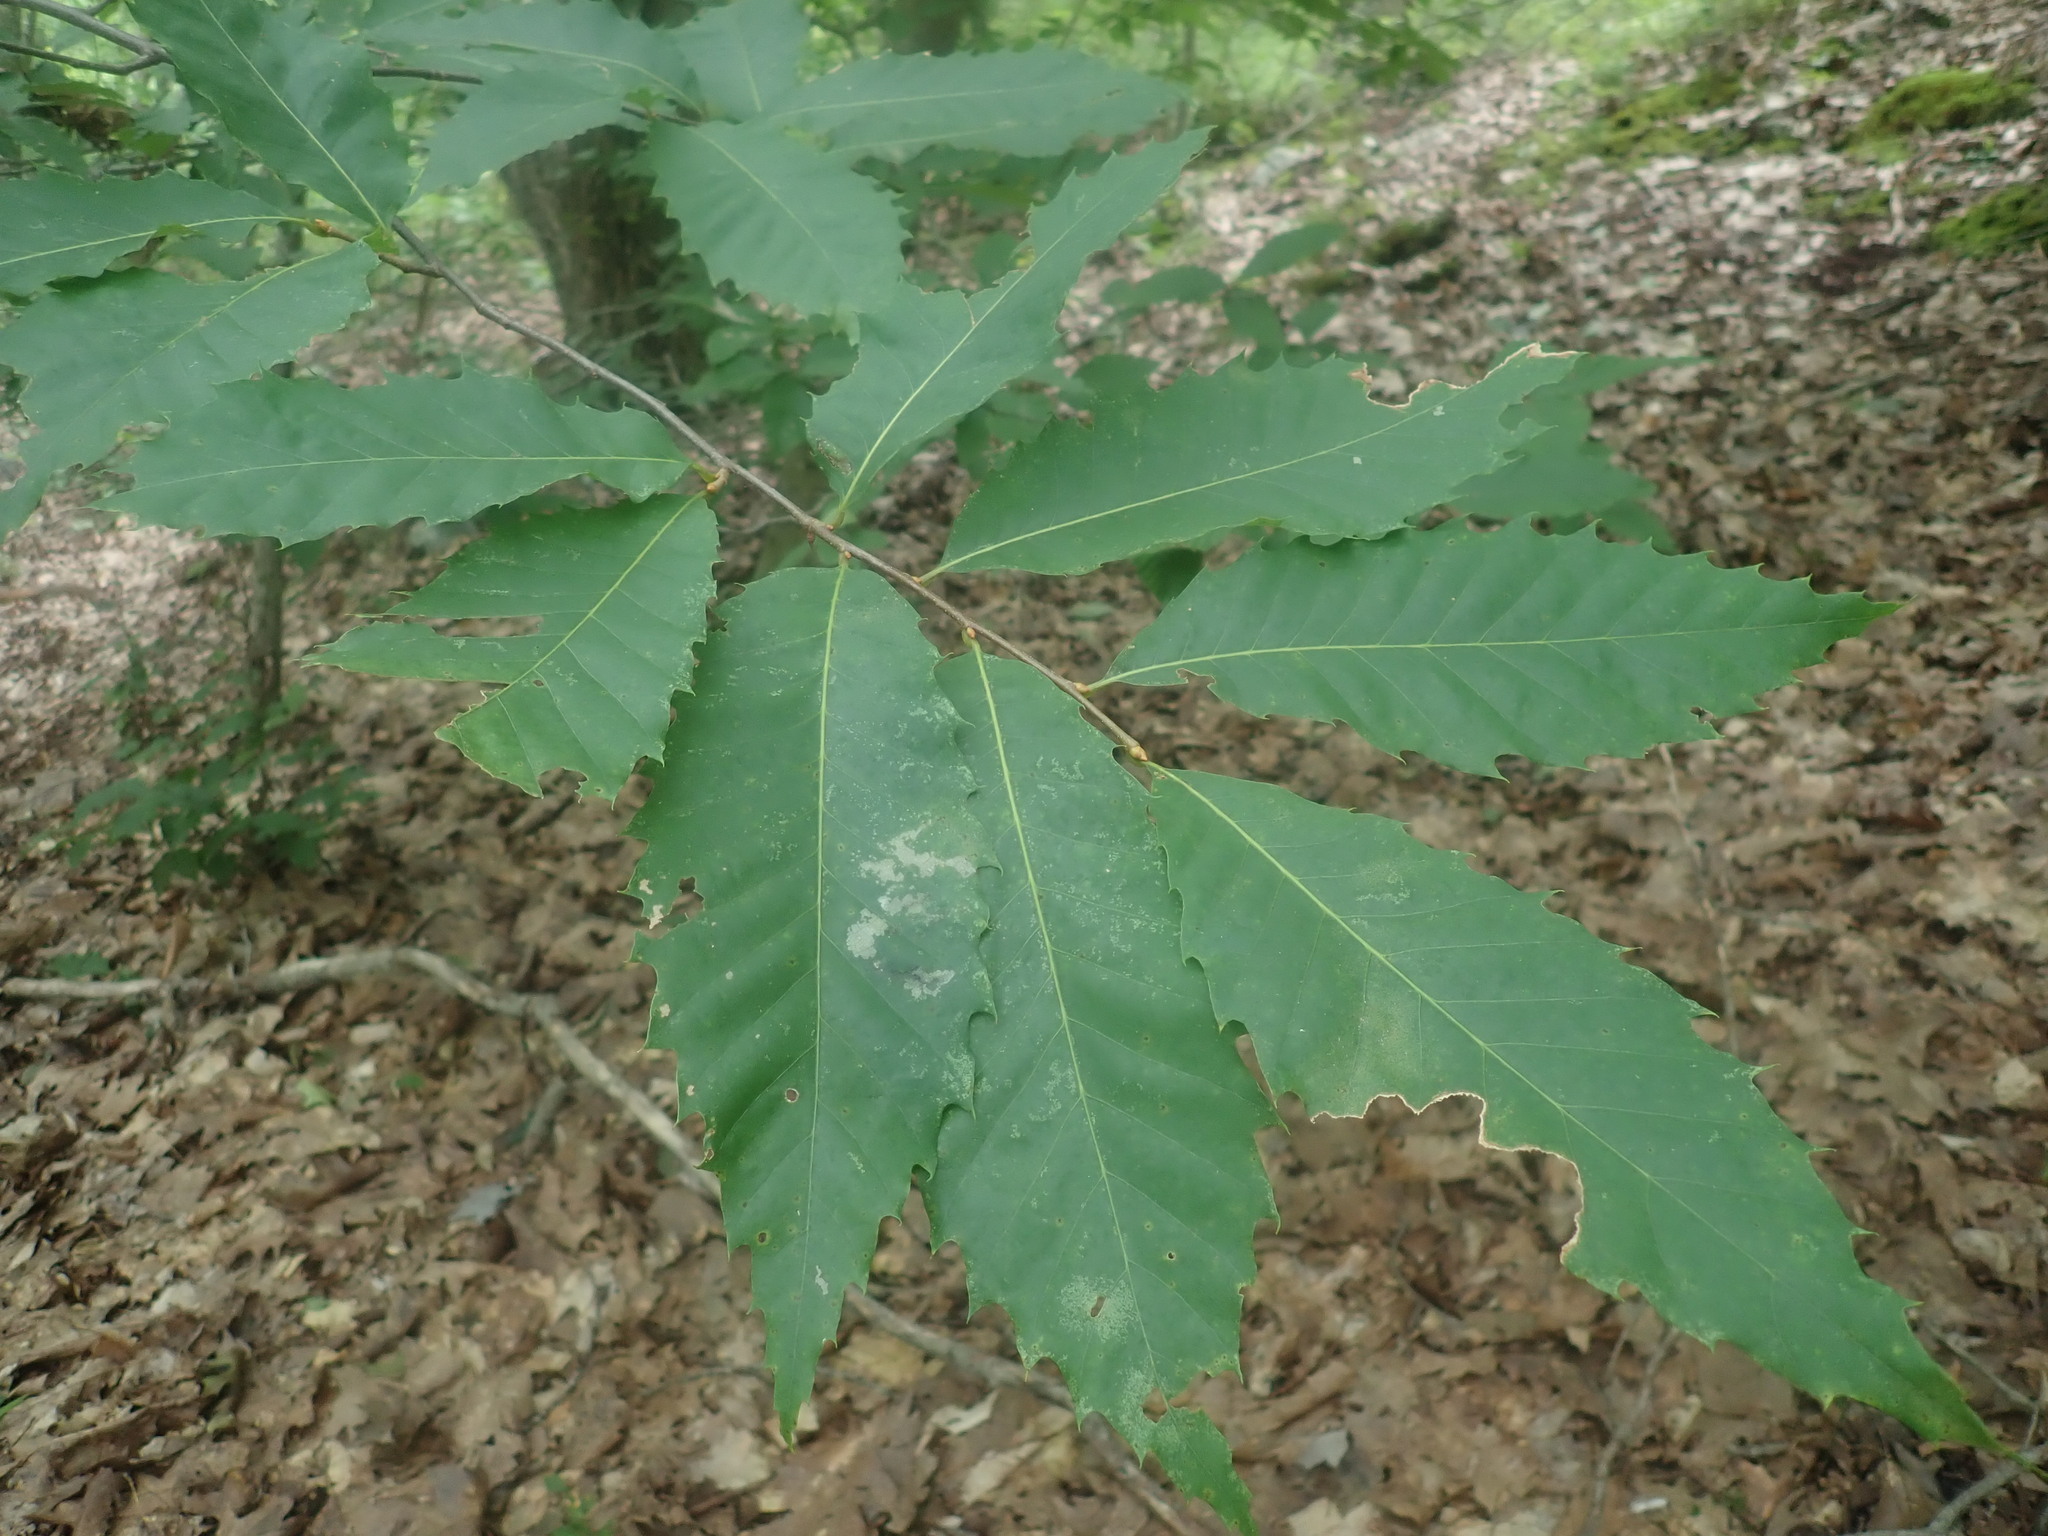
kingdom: Plantae
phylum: Tracheophyta
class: Magnoliopsida
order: Fagales
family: Fagaceae
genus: Castanea
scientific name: Castanea dentata
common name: American chestnut
